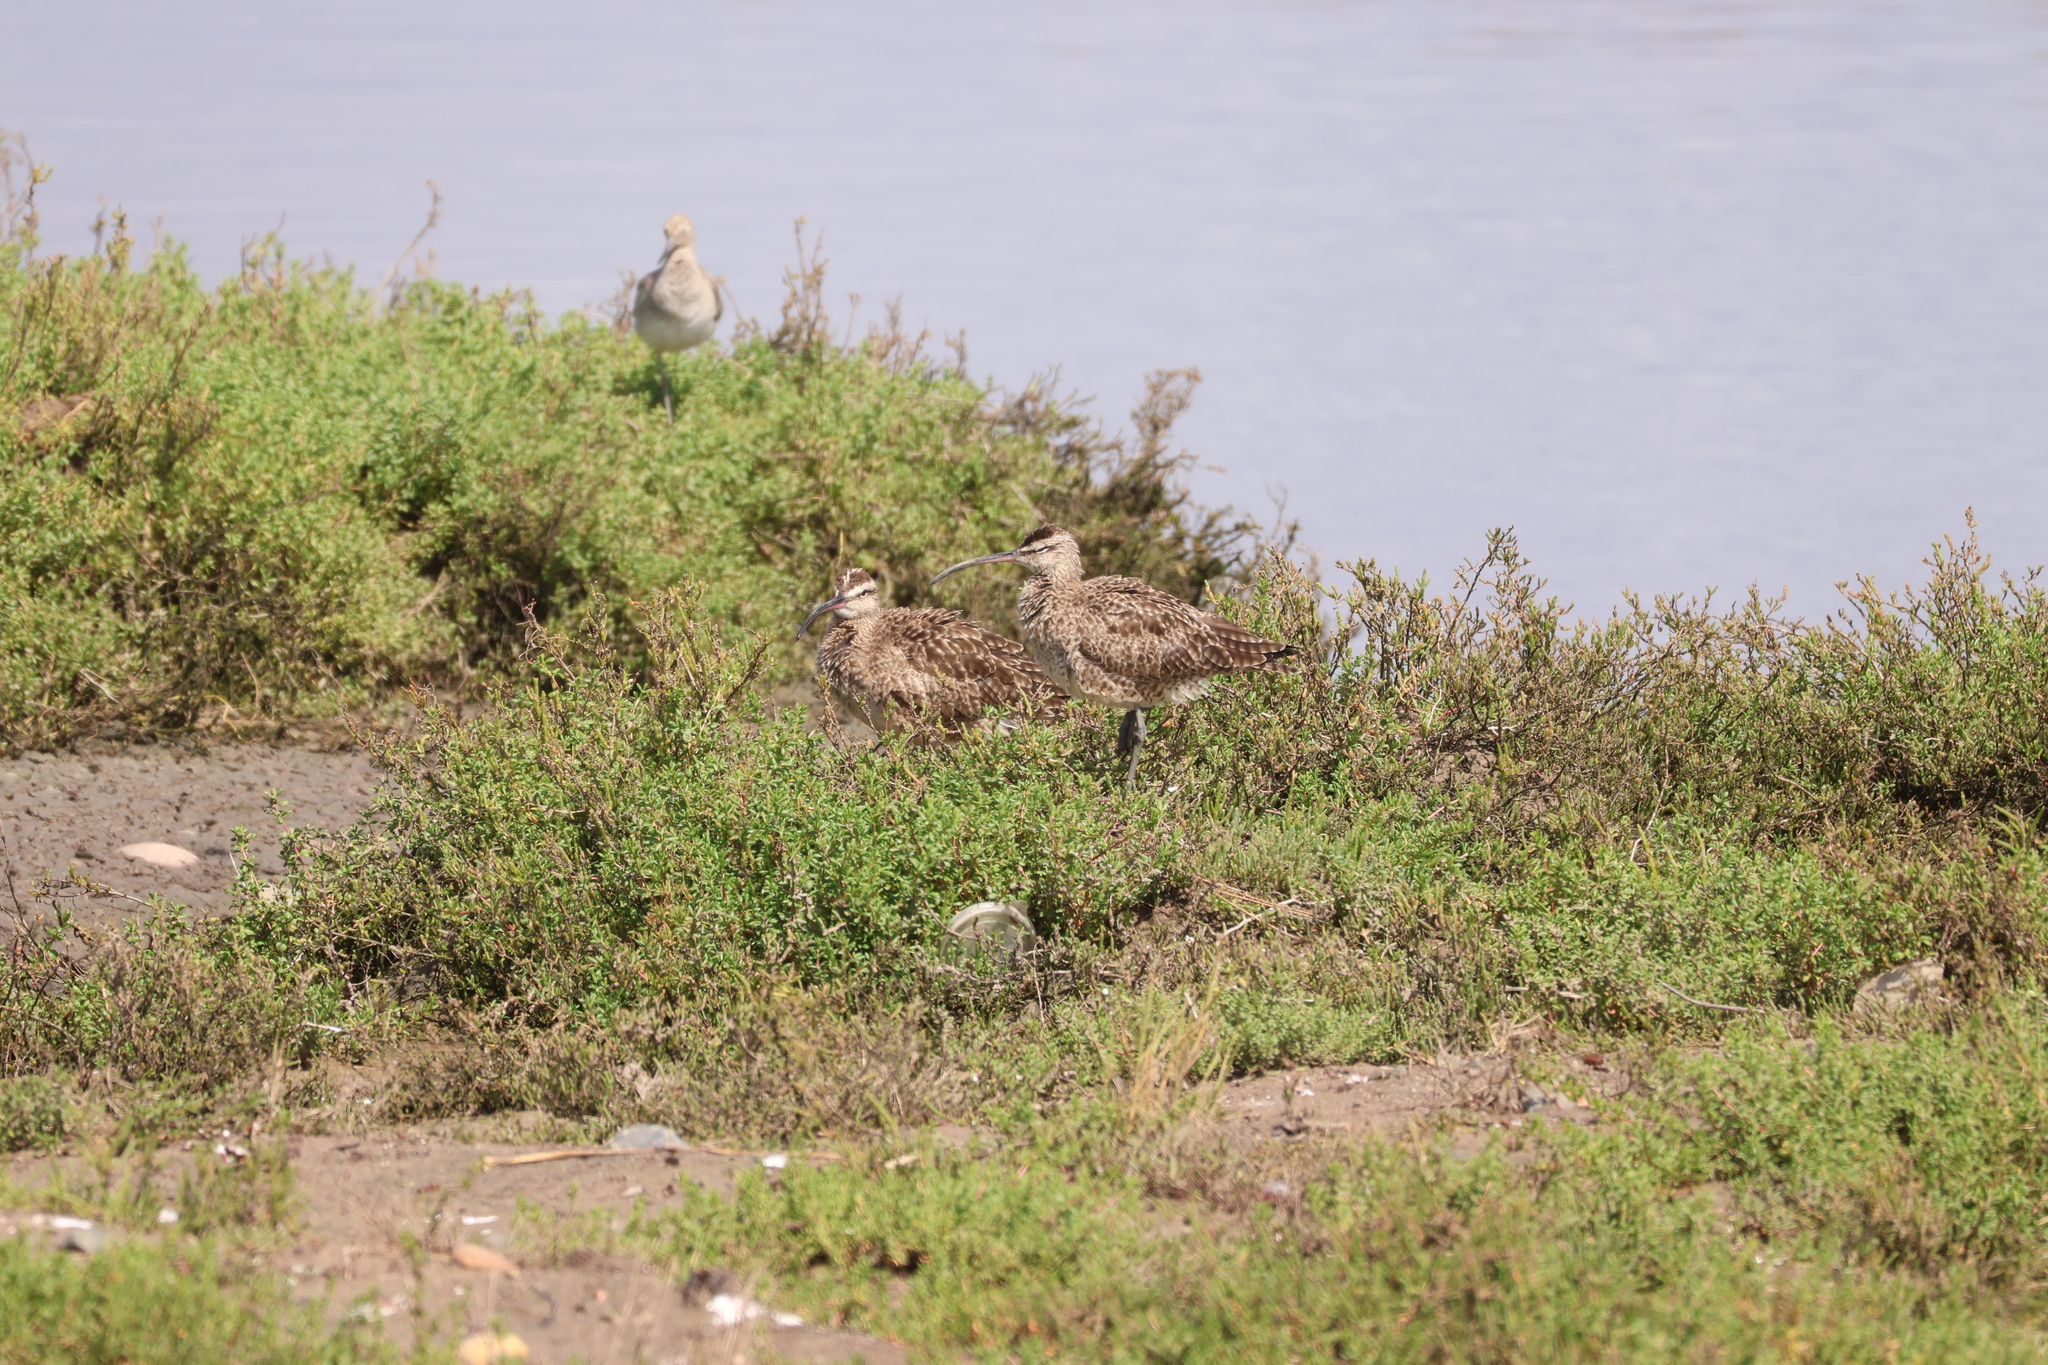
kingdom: Animalia
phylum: Chordata
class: Aves
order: Charadriiformes
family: Scolopacidae
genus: Numenius
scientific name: Numenius phaeopus
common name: Whimbrel
